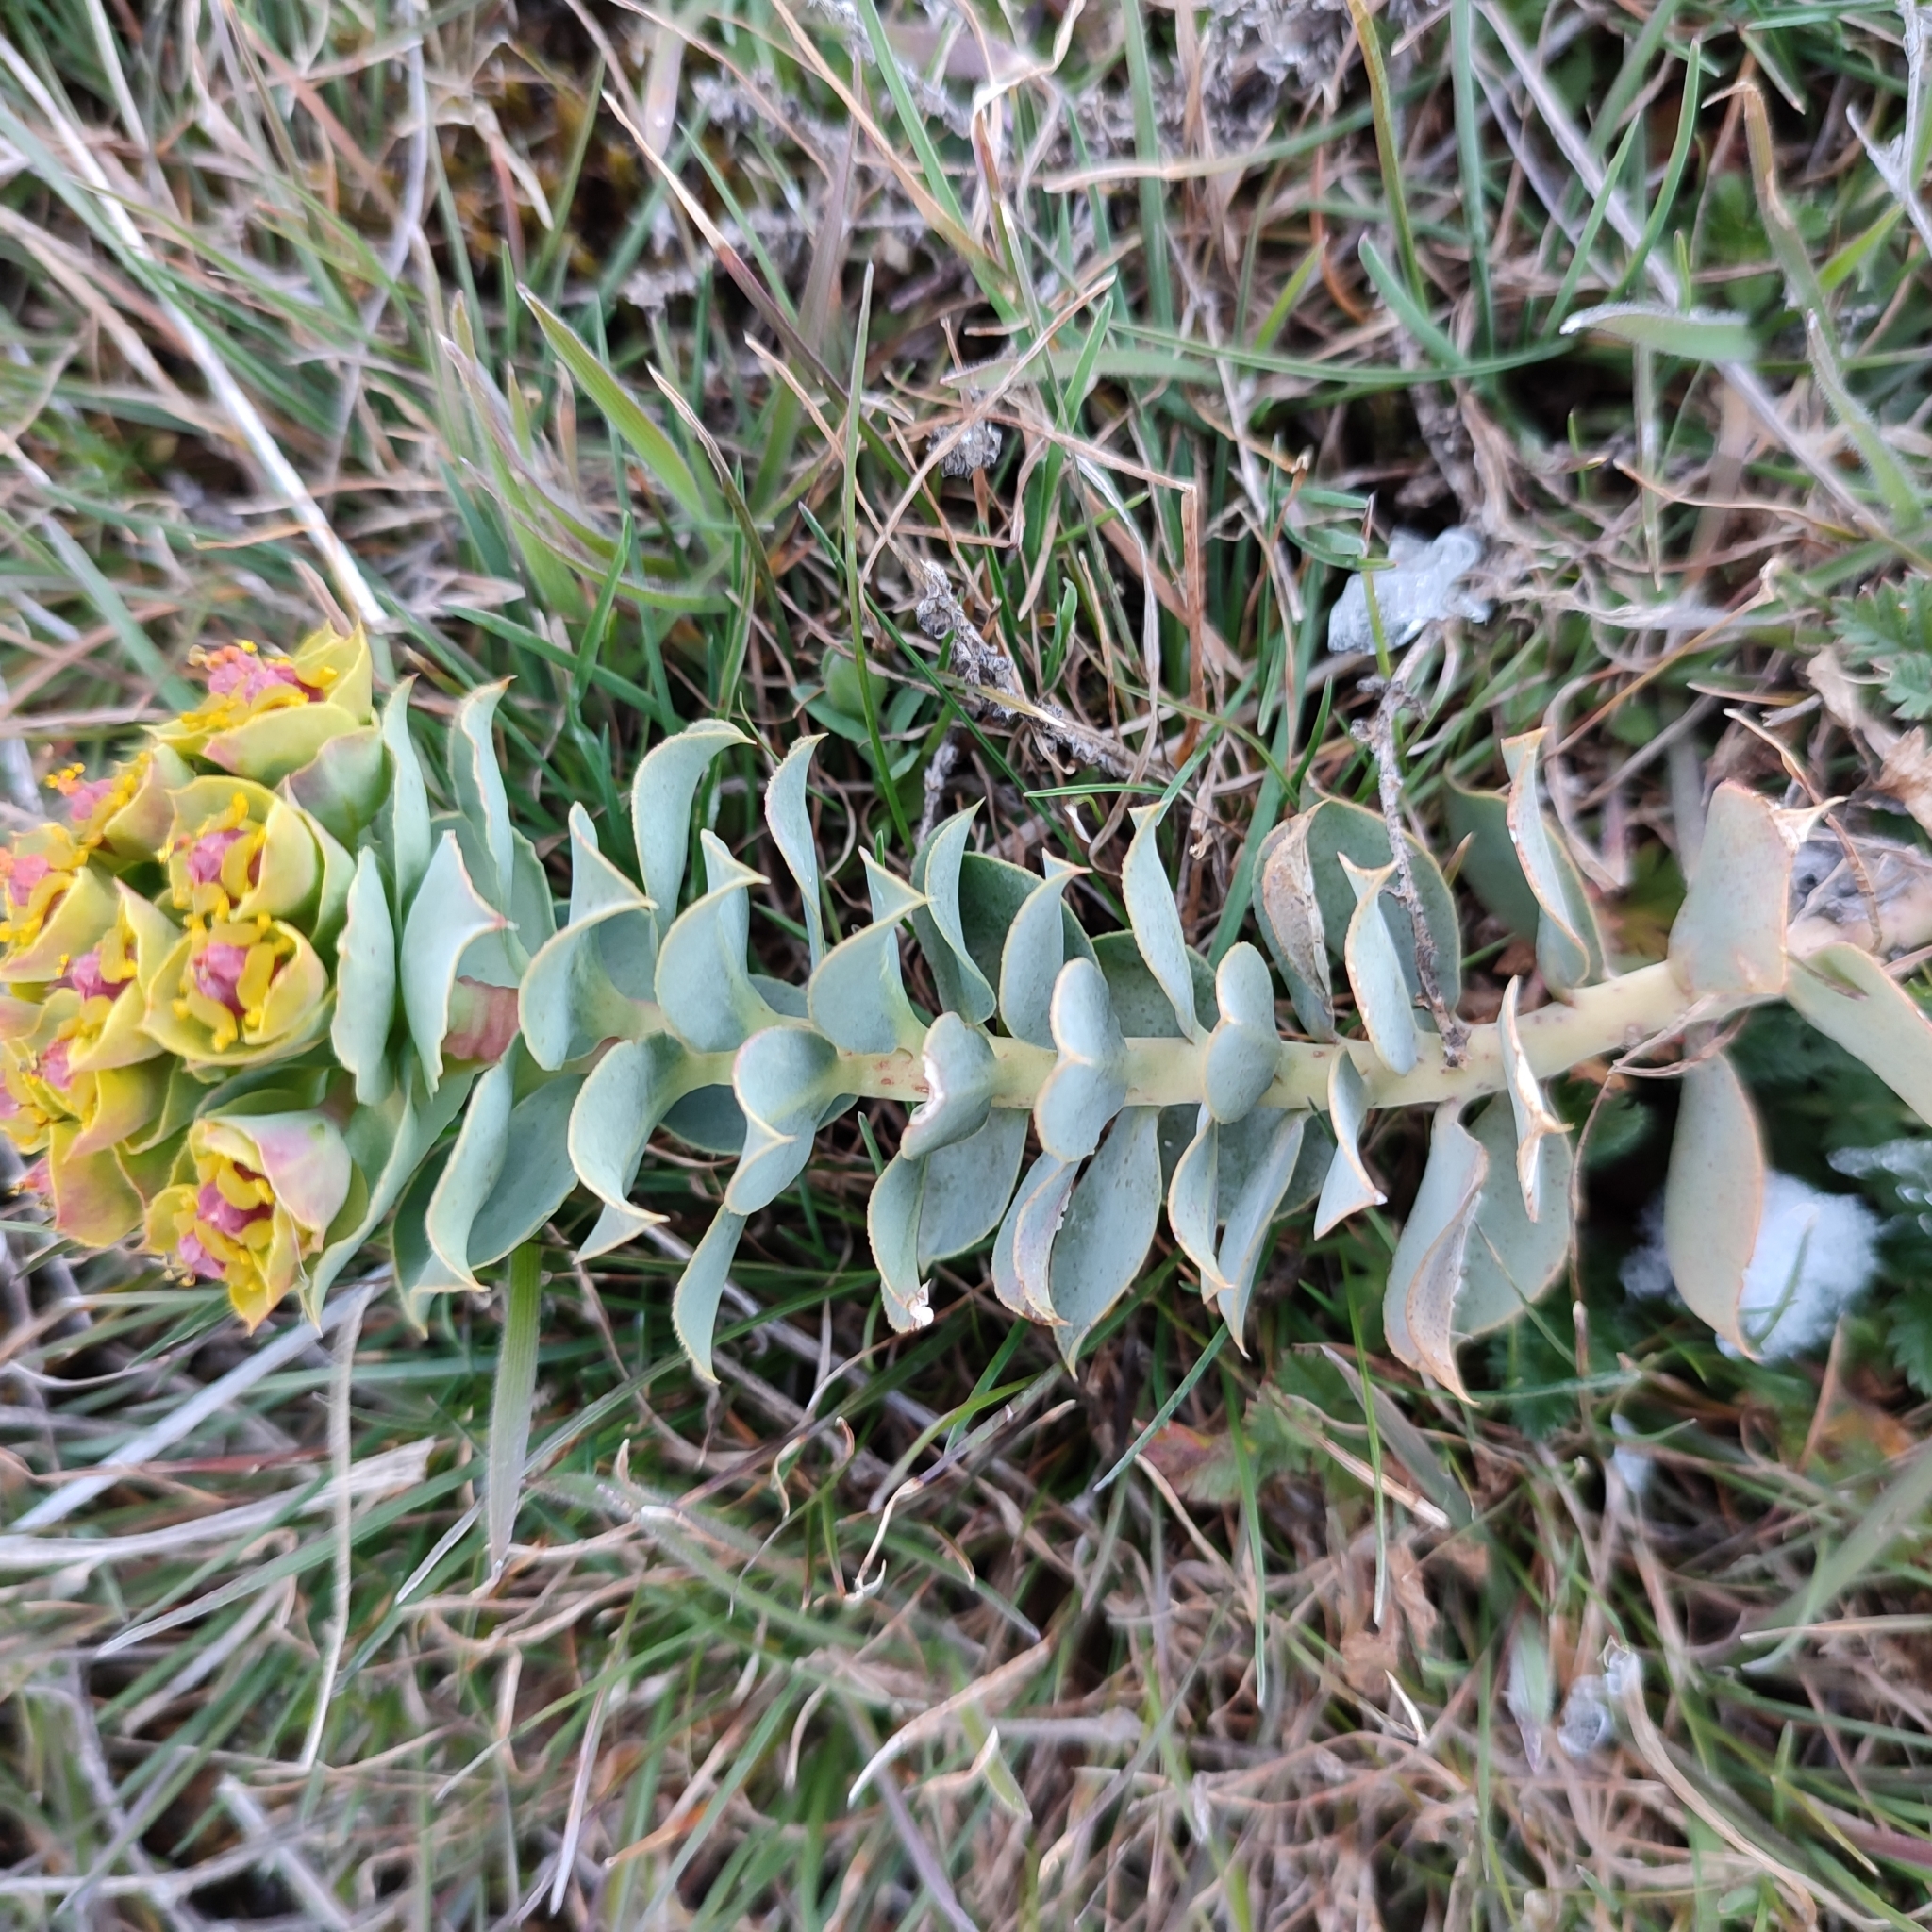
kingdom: Plantae
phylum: Tracheophyta
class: Magnoliopsida
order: Malpighiales
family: Euphorbiaceae
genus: Euphorbia
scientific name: Euphorbia myrsinites
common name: Myrtle spurge
